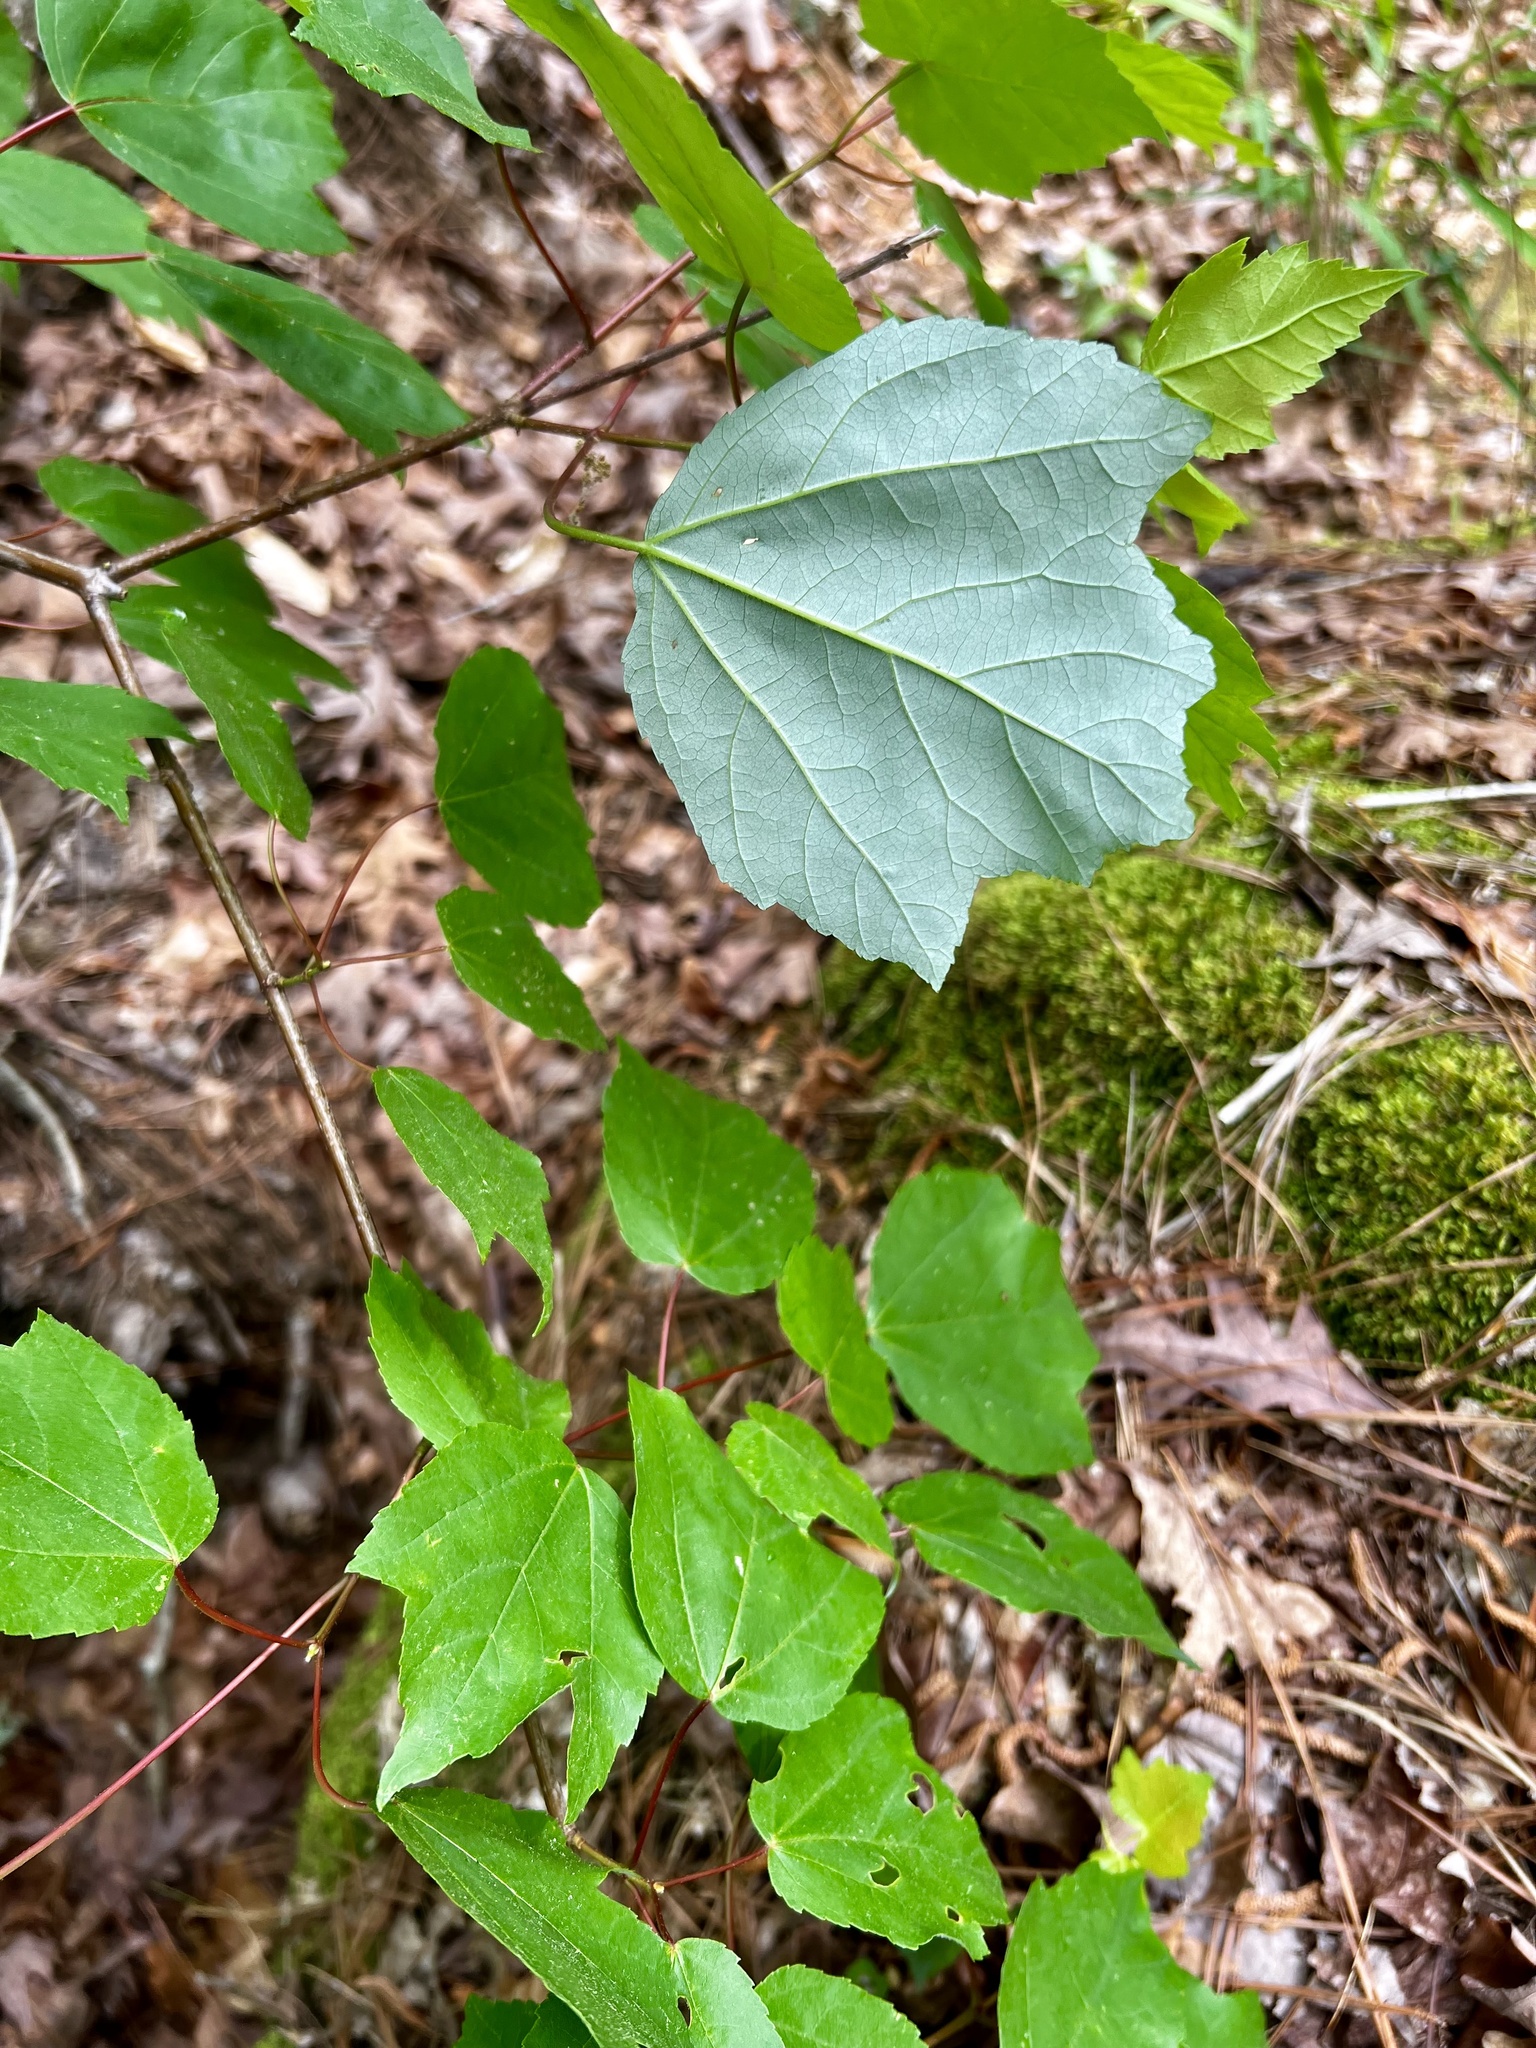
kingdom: Plantae
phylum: Tracheophyta
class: Magnoliopsida
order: Sapindales
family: Sapindaceae
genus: Acer
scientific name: Acer rubrum
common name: Red maple
